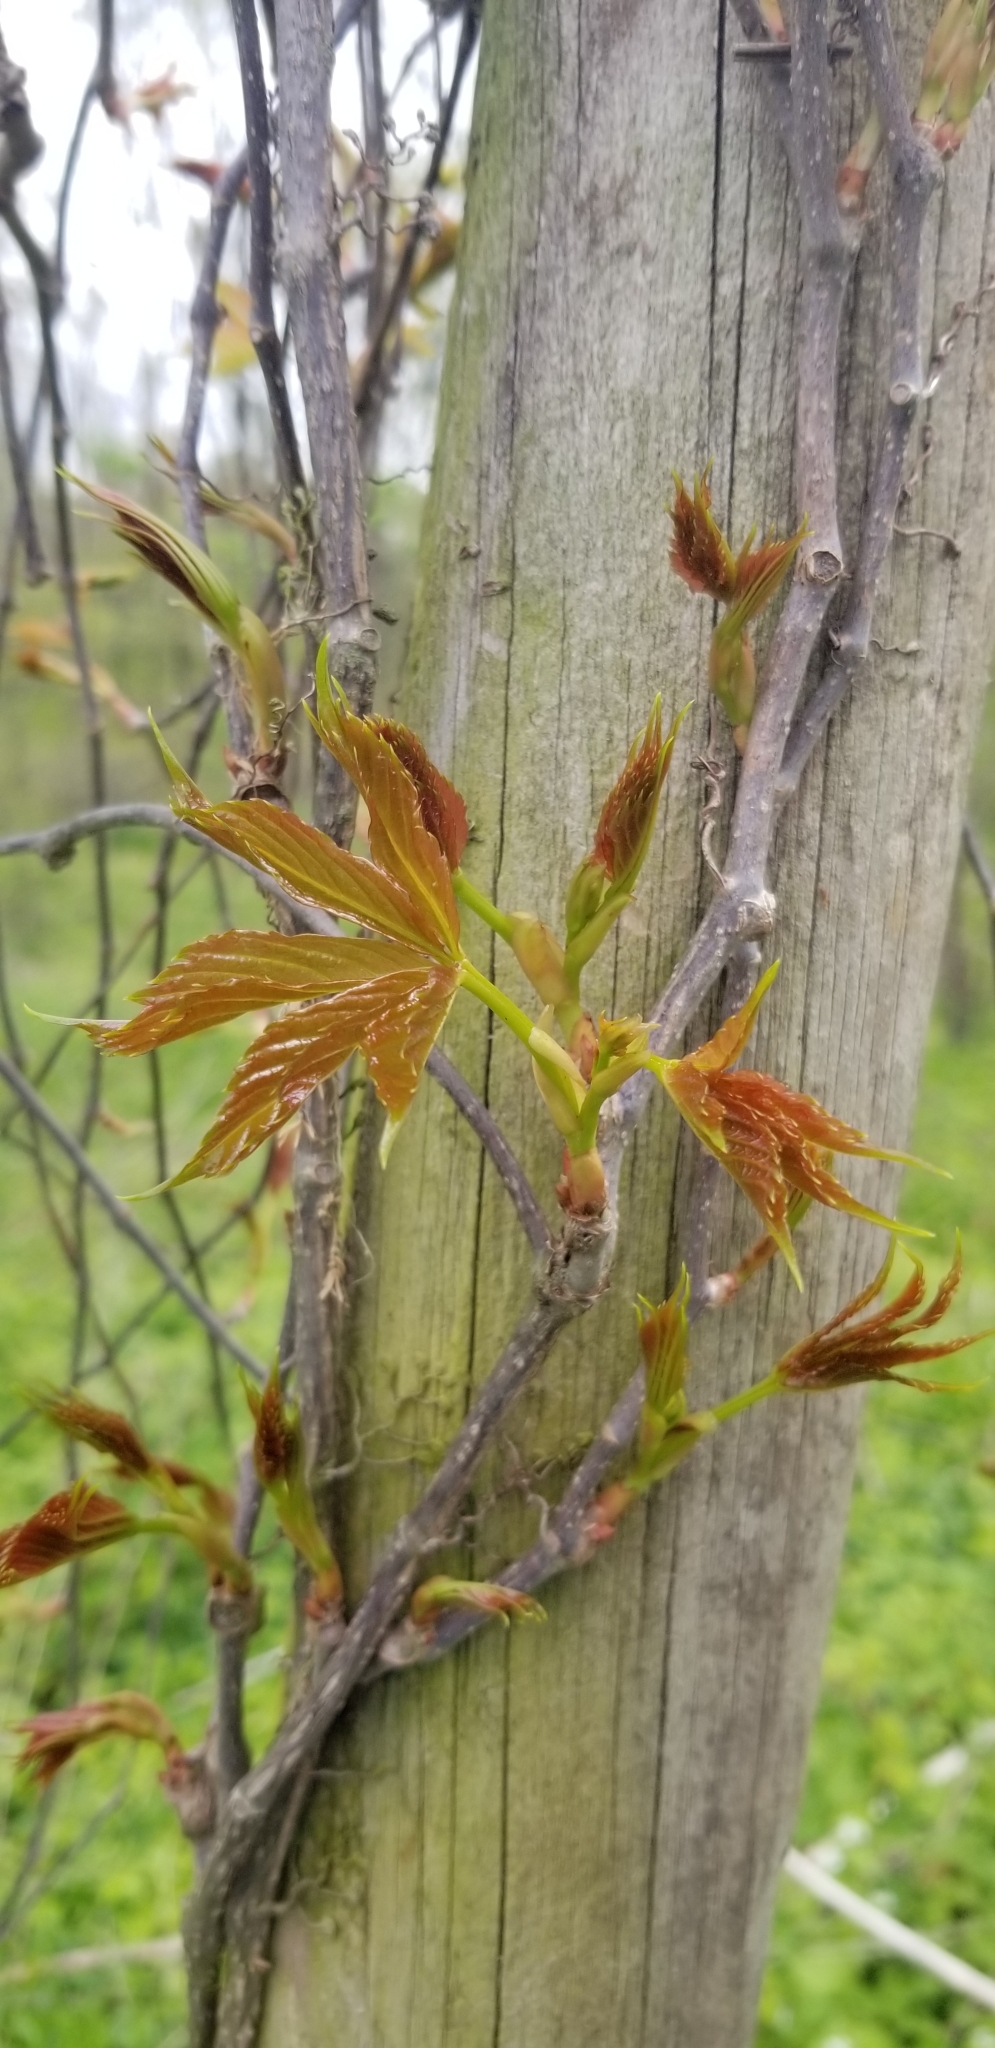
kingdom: Plantae
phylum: Tracheophyta
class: Magnoliopsida
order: Vitales
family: Vitaceae
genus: Parthenocissus
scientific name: Parthenocissus quinquefolia
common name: Virginia-creeper
